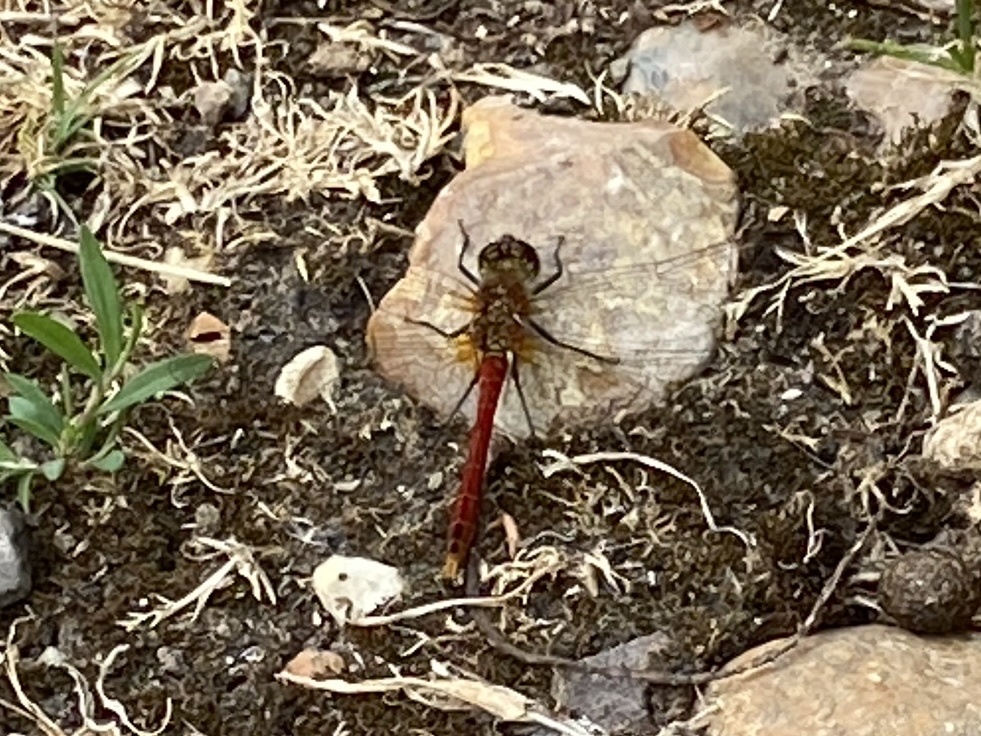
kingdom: Animalia
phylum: Arthropoda
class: Insecta
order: Odonata
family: Libellulidae
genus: Sympetrum
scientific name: Sympetrum sanguineum
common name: Ruddy darter
